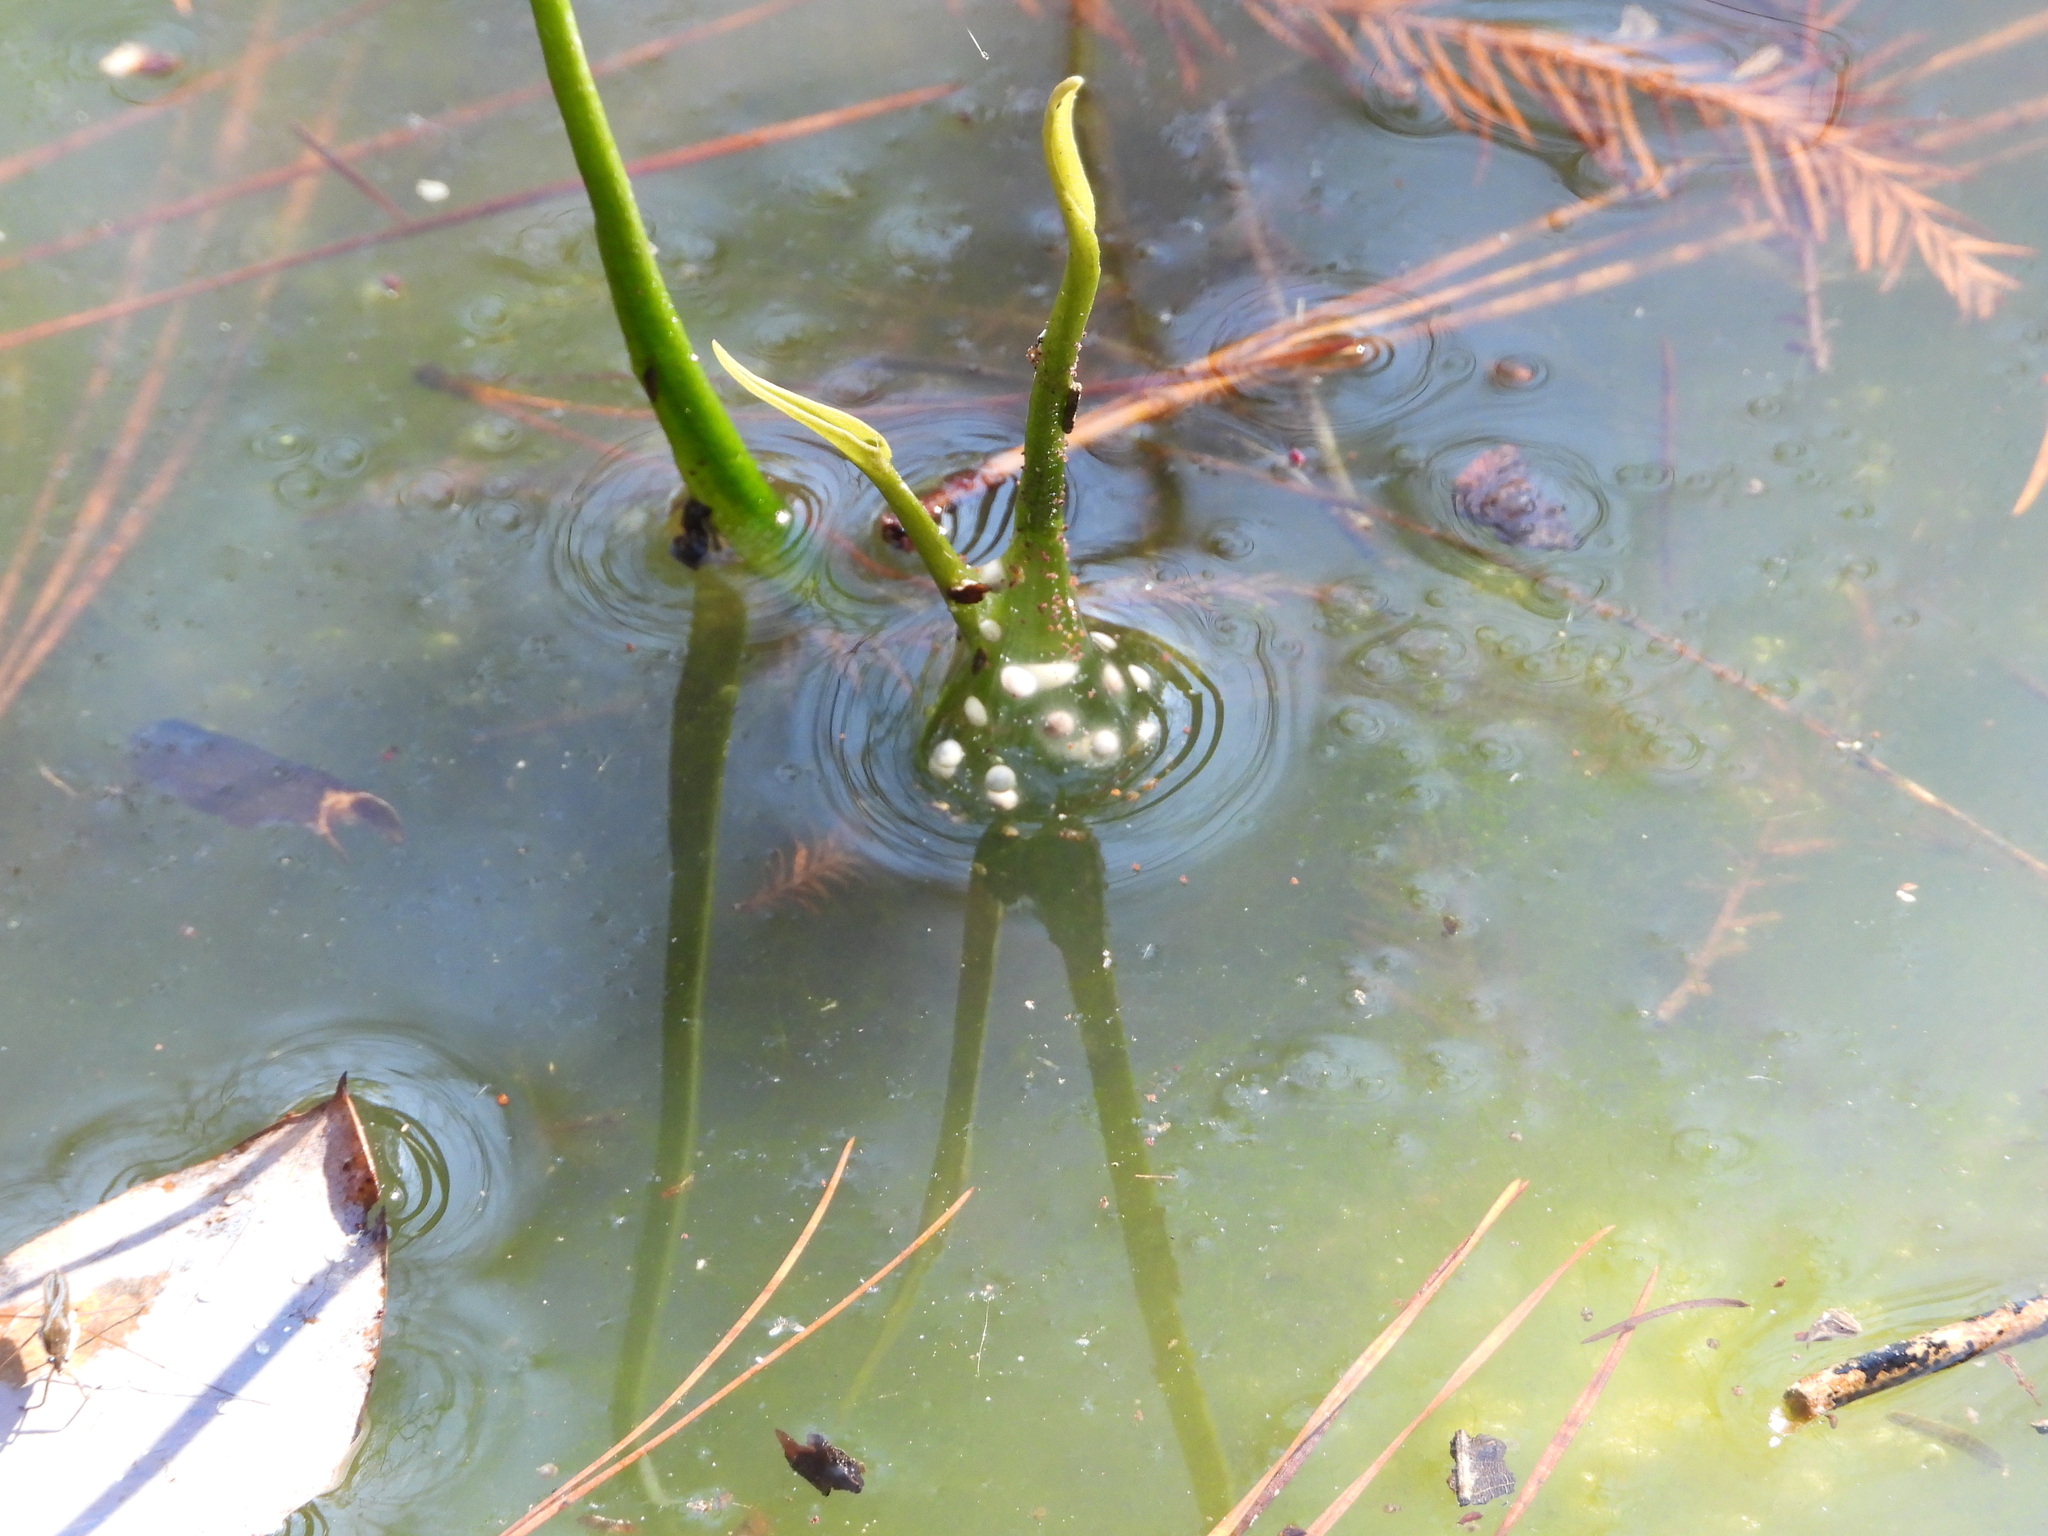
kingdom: Animalia
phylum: Chordata
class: Amphibia
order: Anura
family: Hylidae
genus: Pseudacris
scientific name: Pseudacris feriarum
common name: Upland chorus frog
